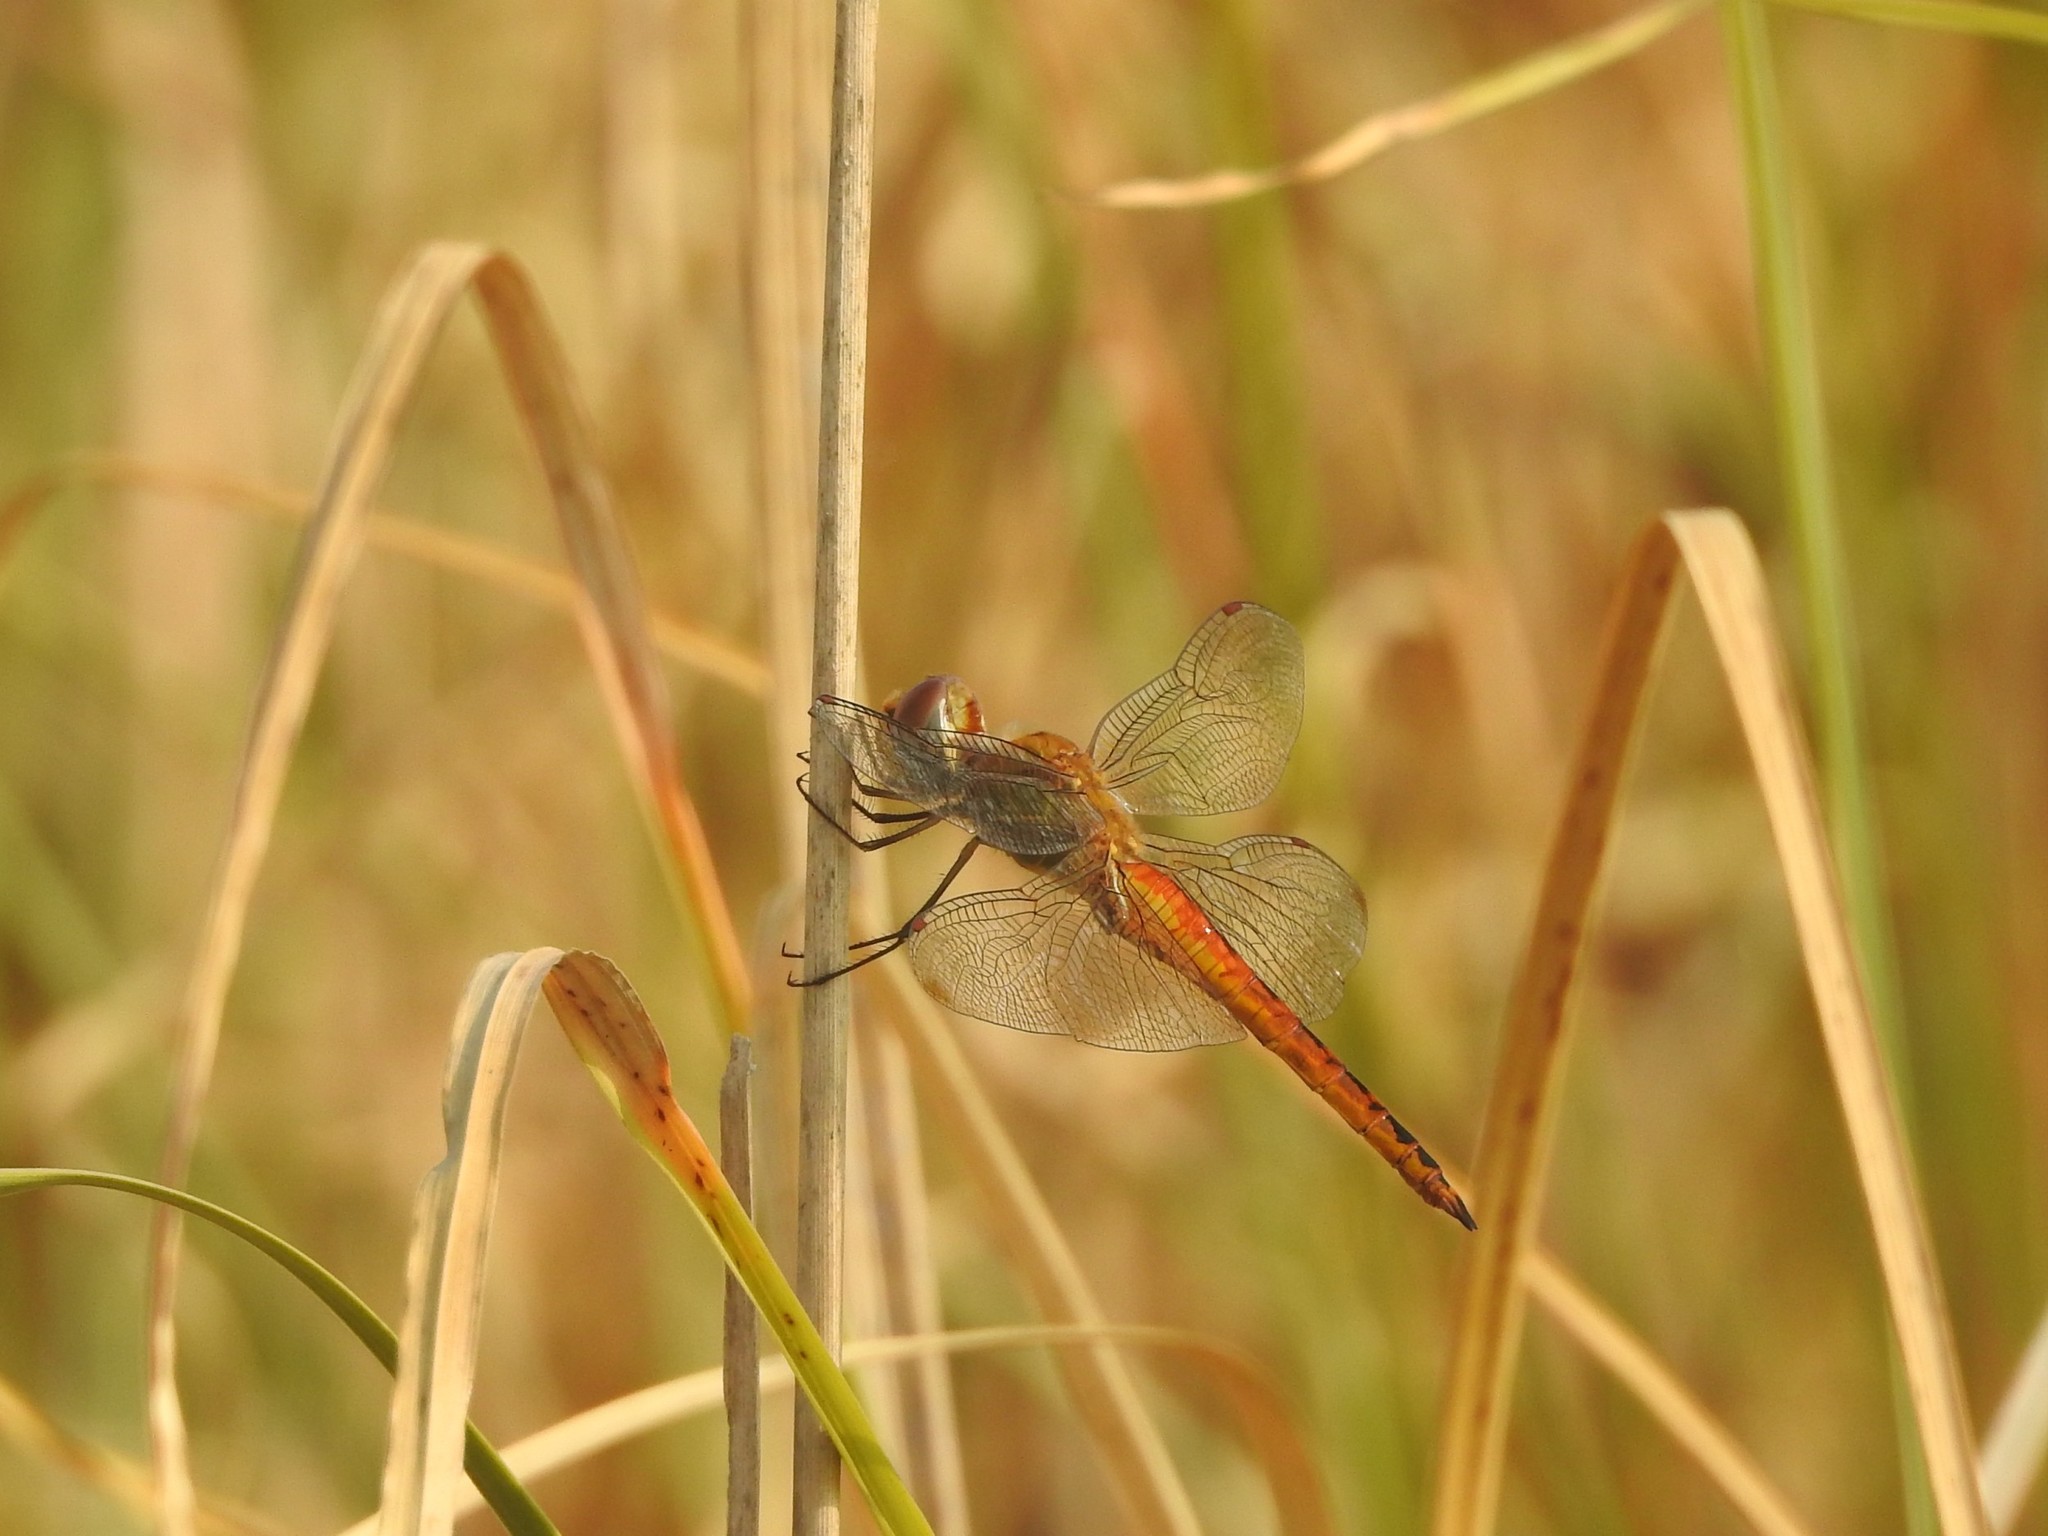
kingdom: Animalia
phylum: Arthropoda
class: Insecta
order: Odonata
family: Libellulidae
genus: Pantala
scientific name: Pantala flavescens
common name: Wandering glider
